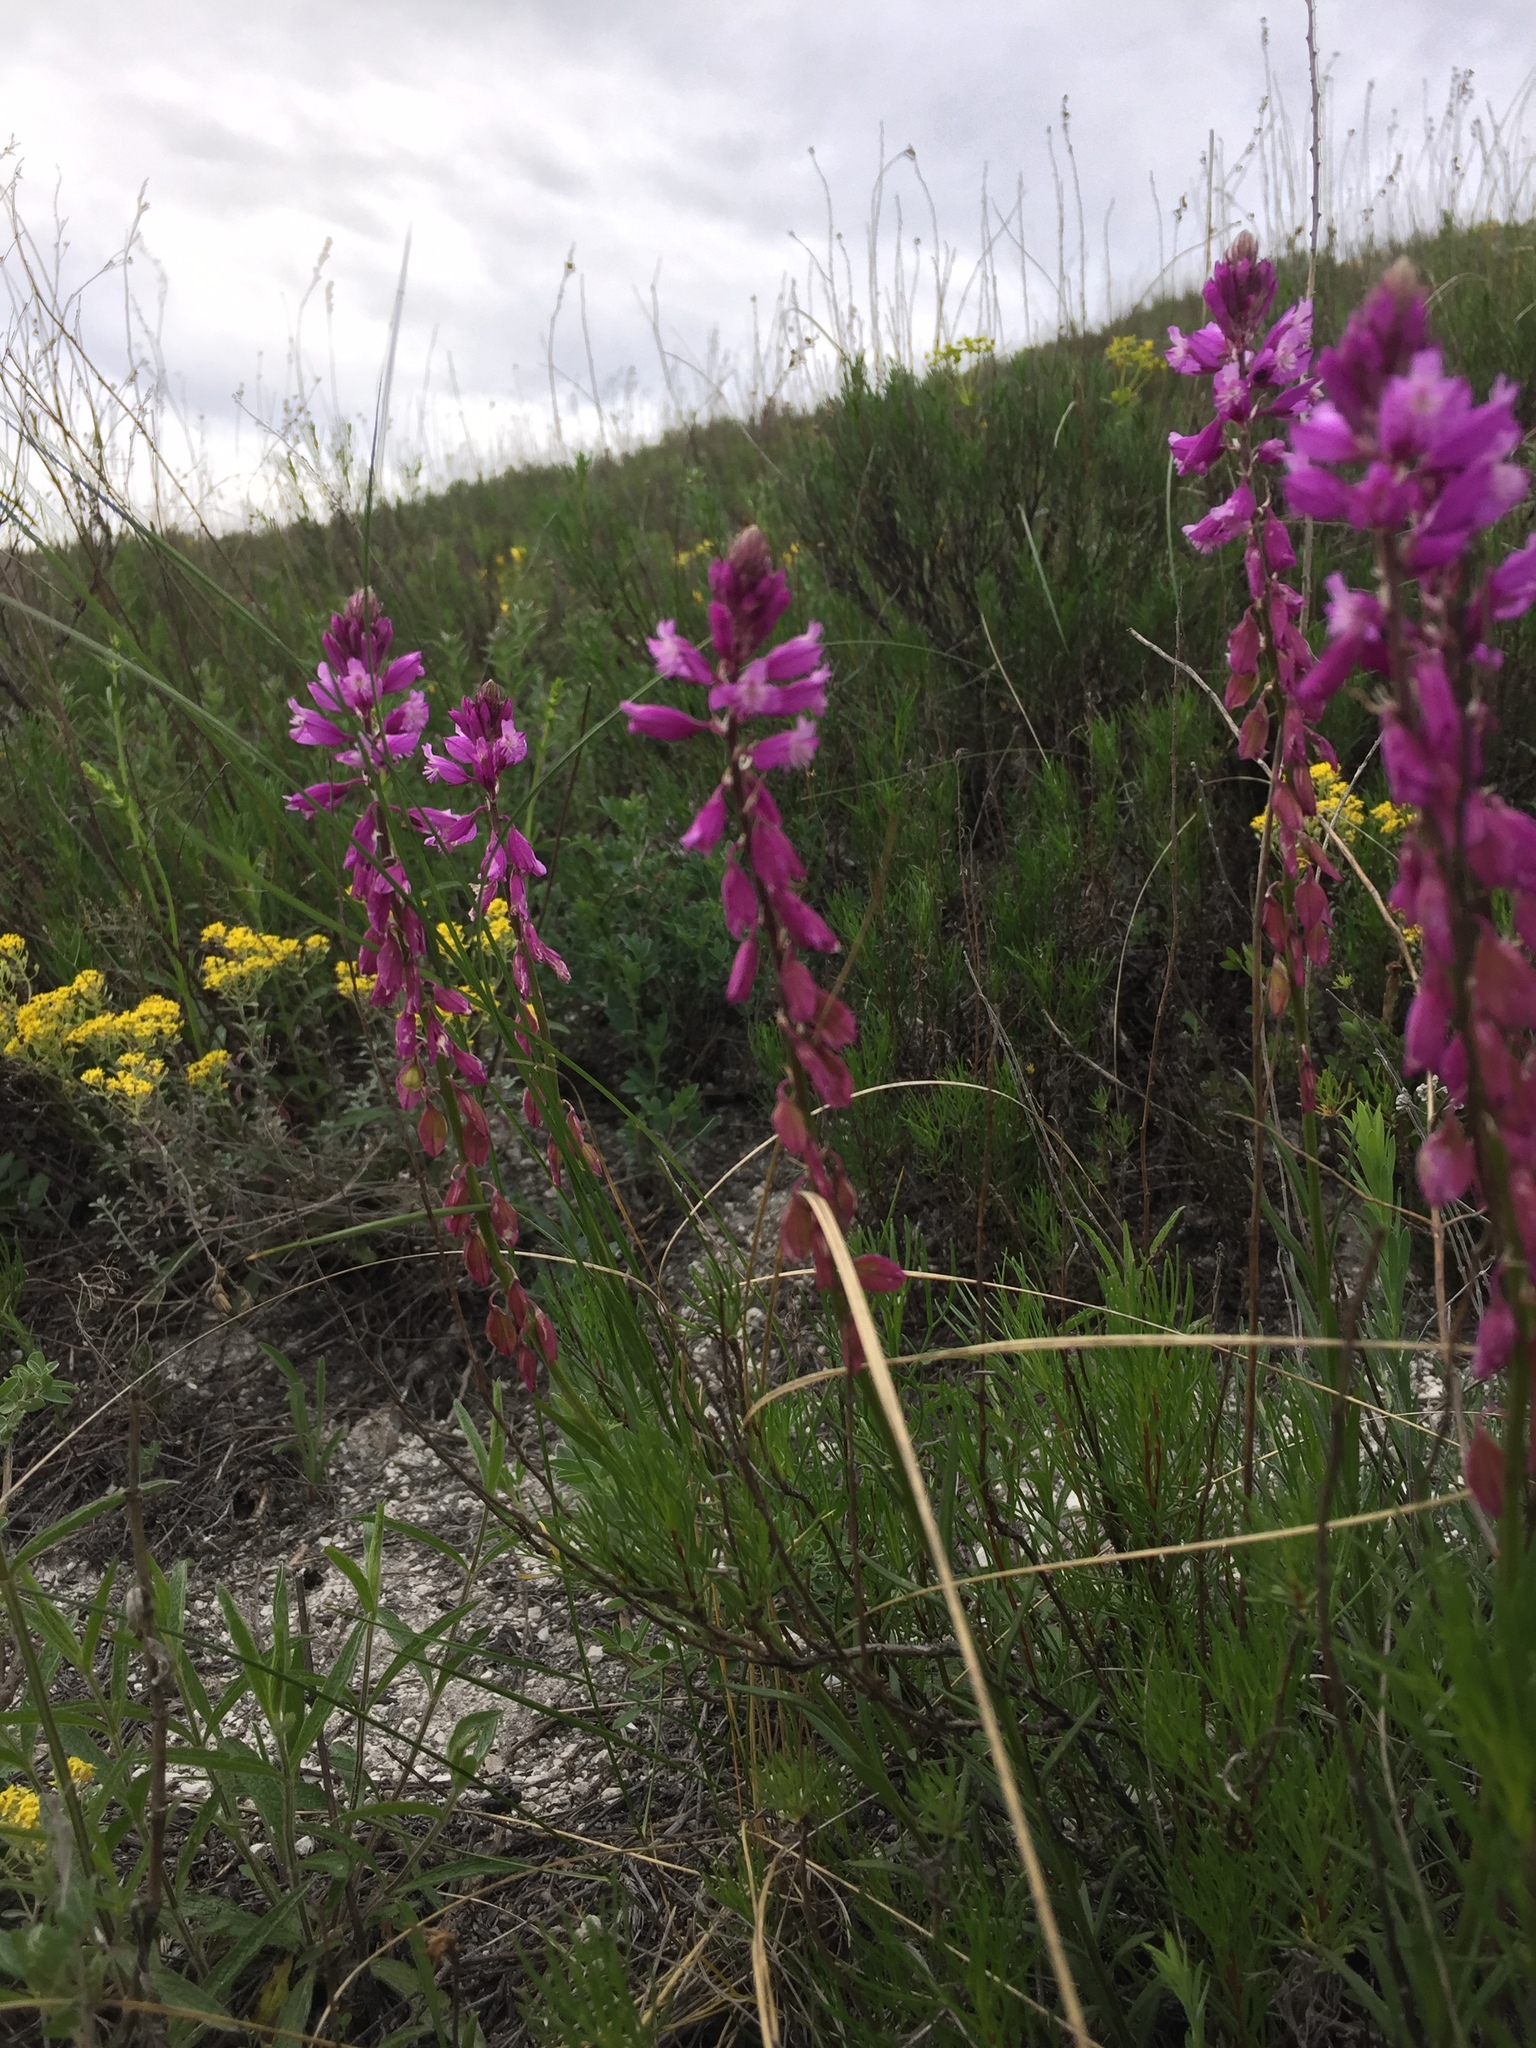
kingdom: Plantae
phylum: Tracheophyta
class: Magnoliopsida
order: Fabales
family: Polygalaceae
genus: Polygala
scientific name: Polygala nicaeensis
